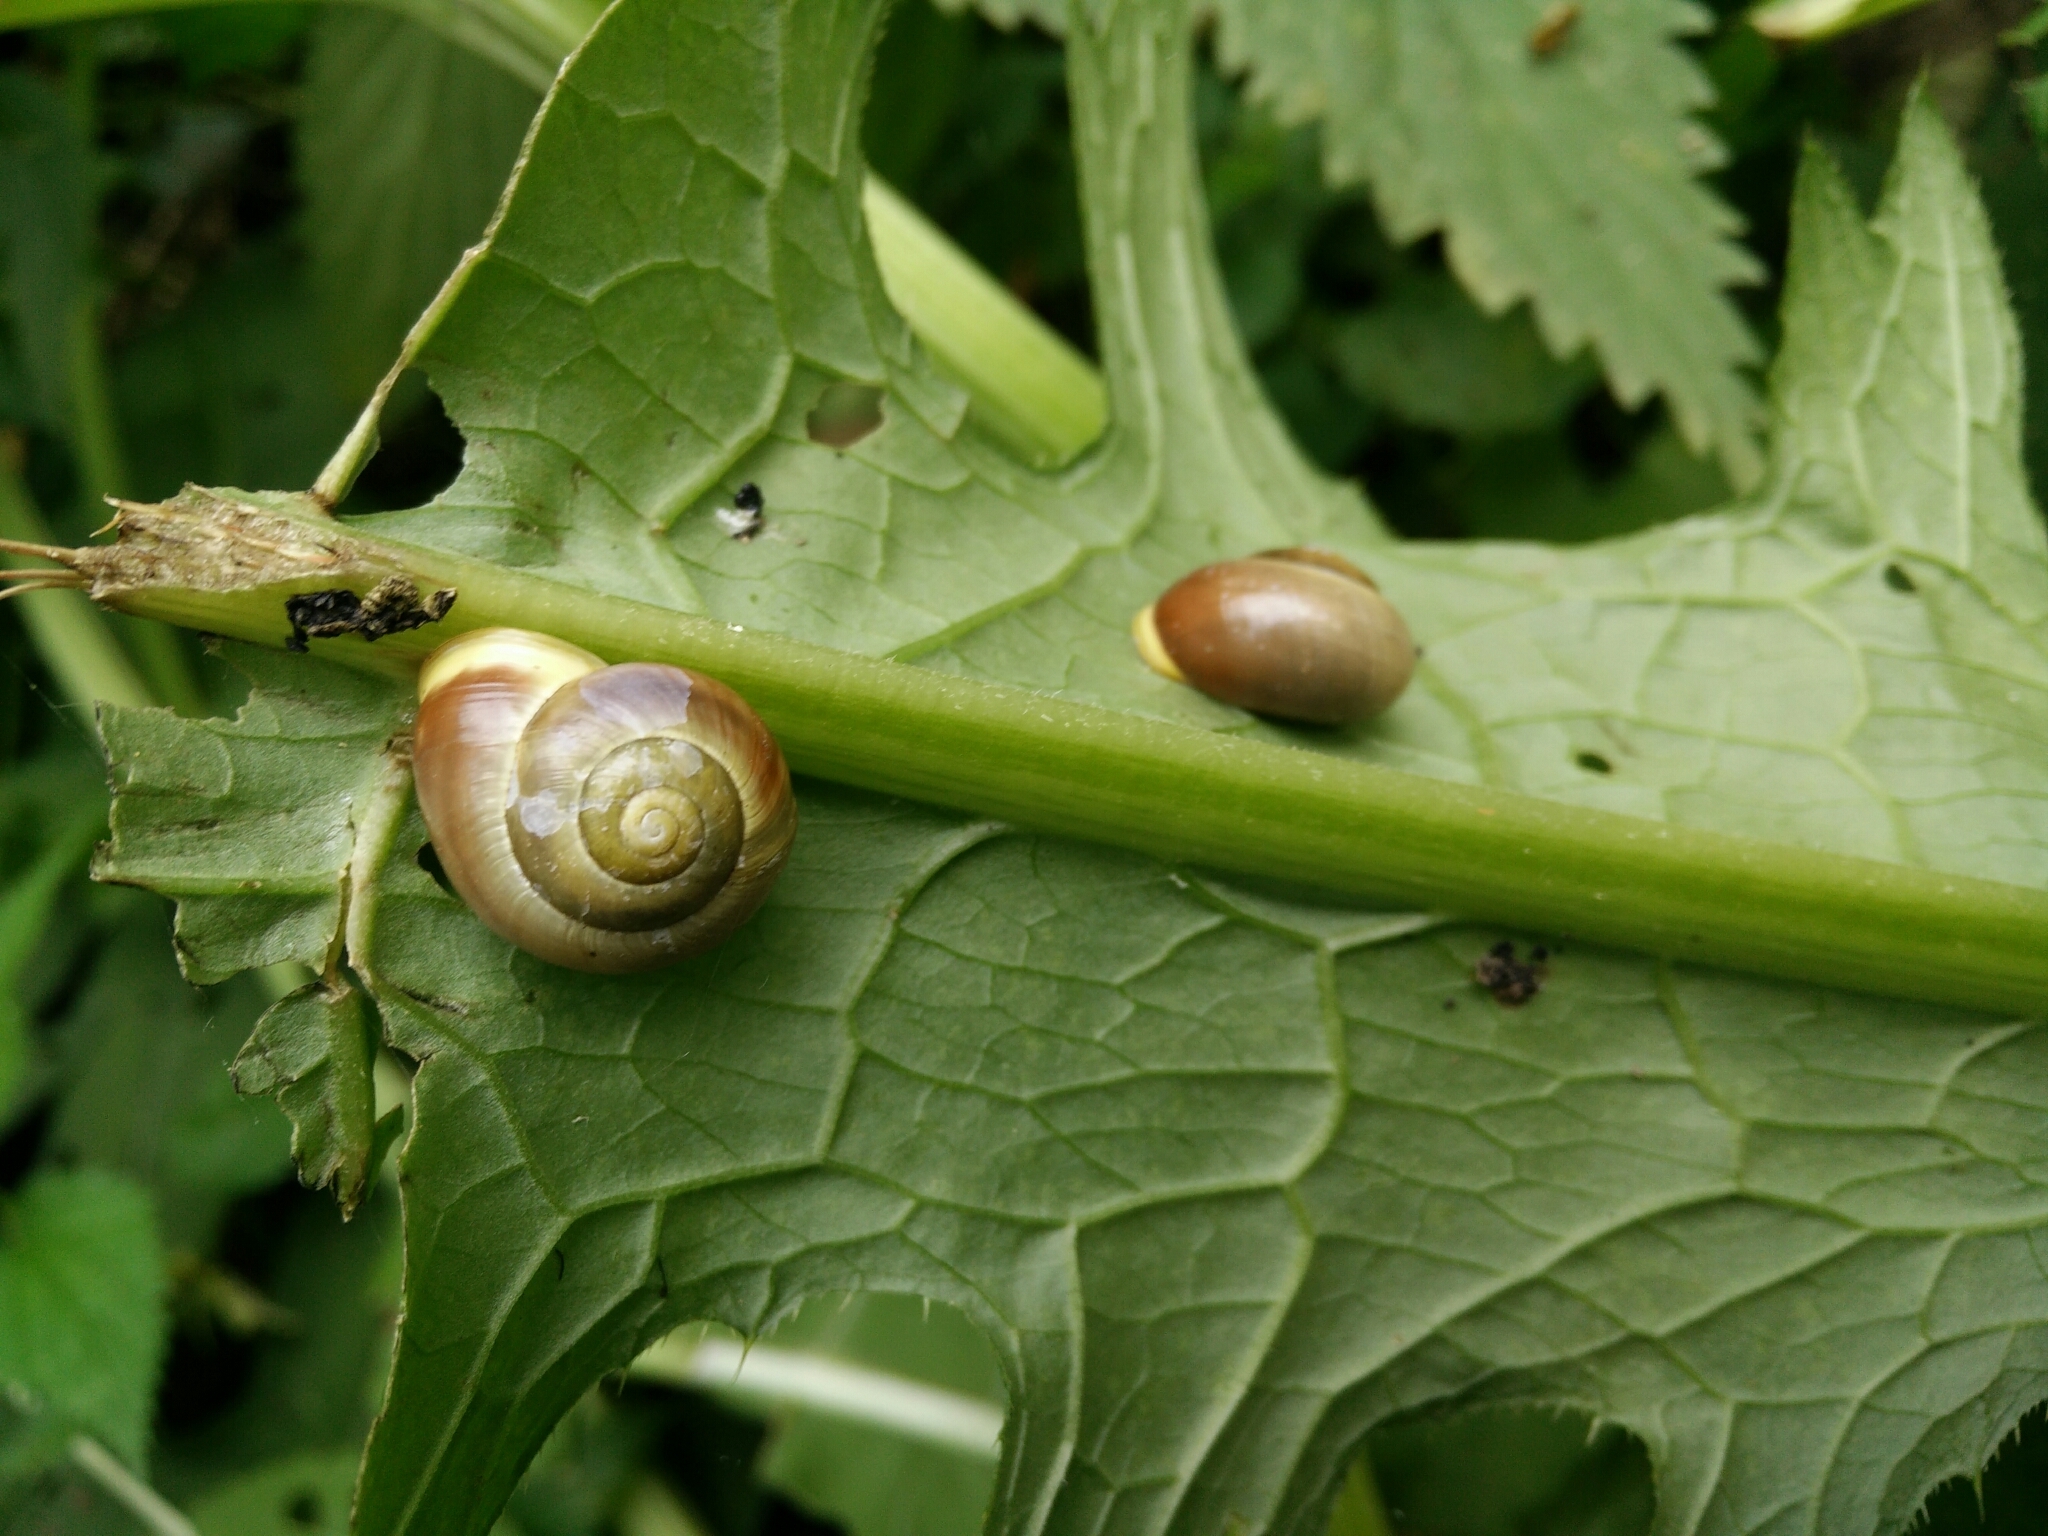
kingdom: Animalia
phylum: Mollusca
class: Gastropoda
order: Stylommatophora
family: Helicidae
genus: Cepaea
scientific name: Cepaea hortensis
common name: White-lip gardensnail
